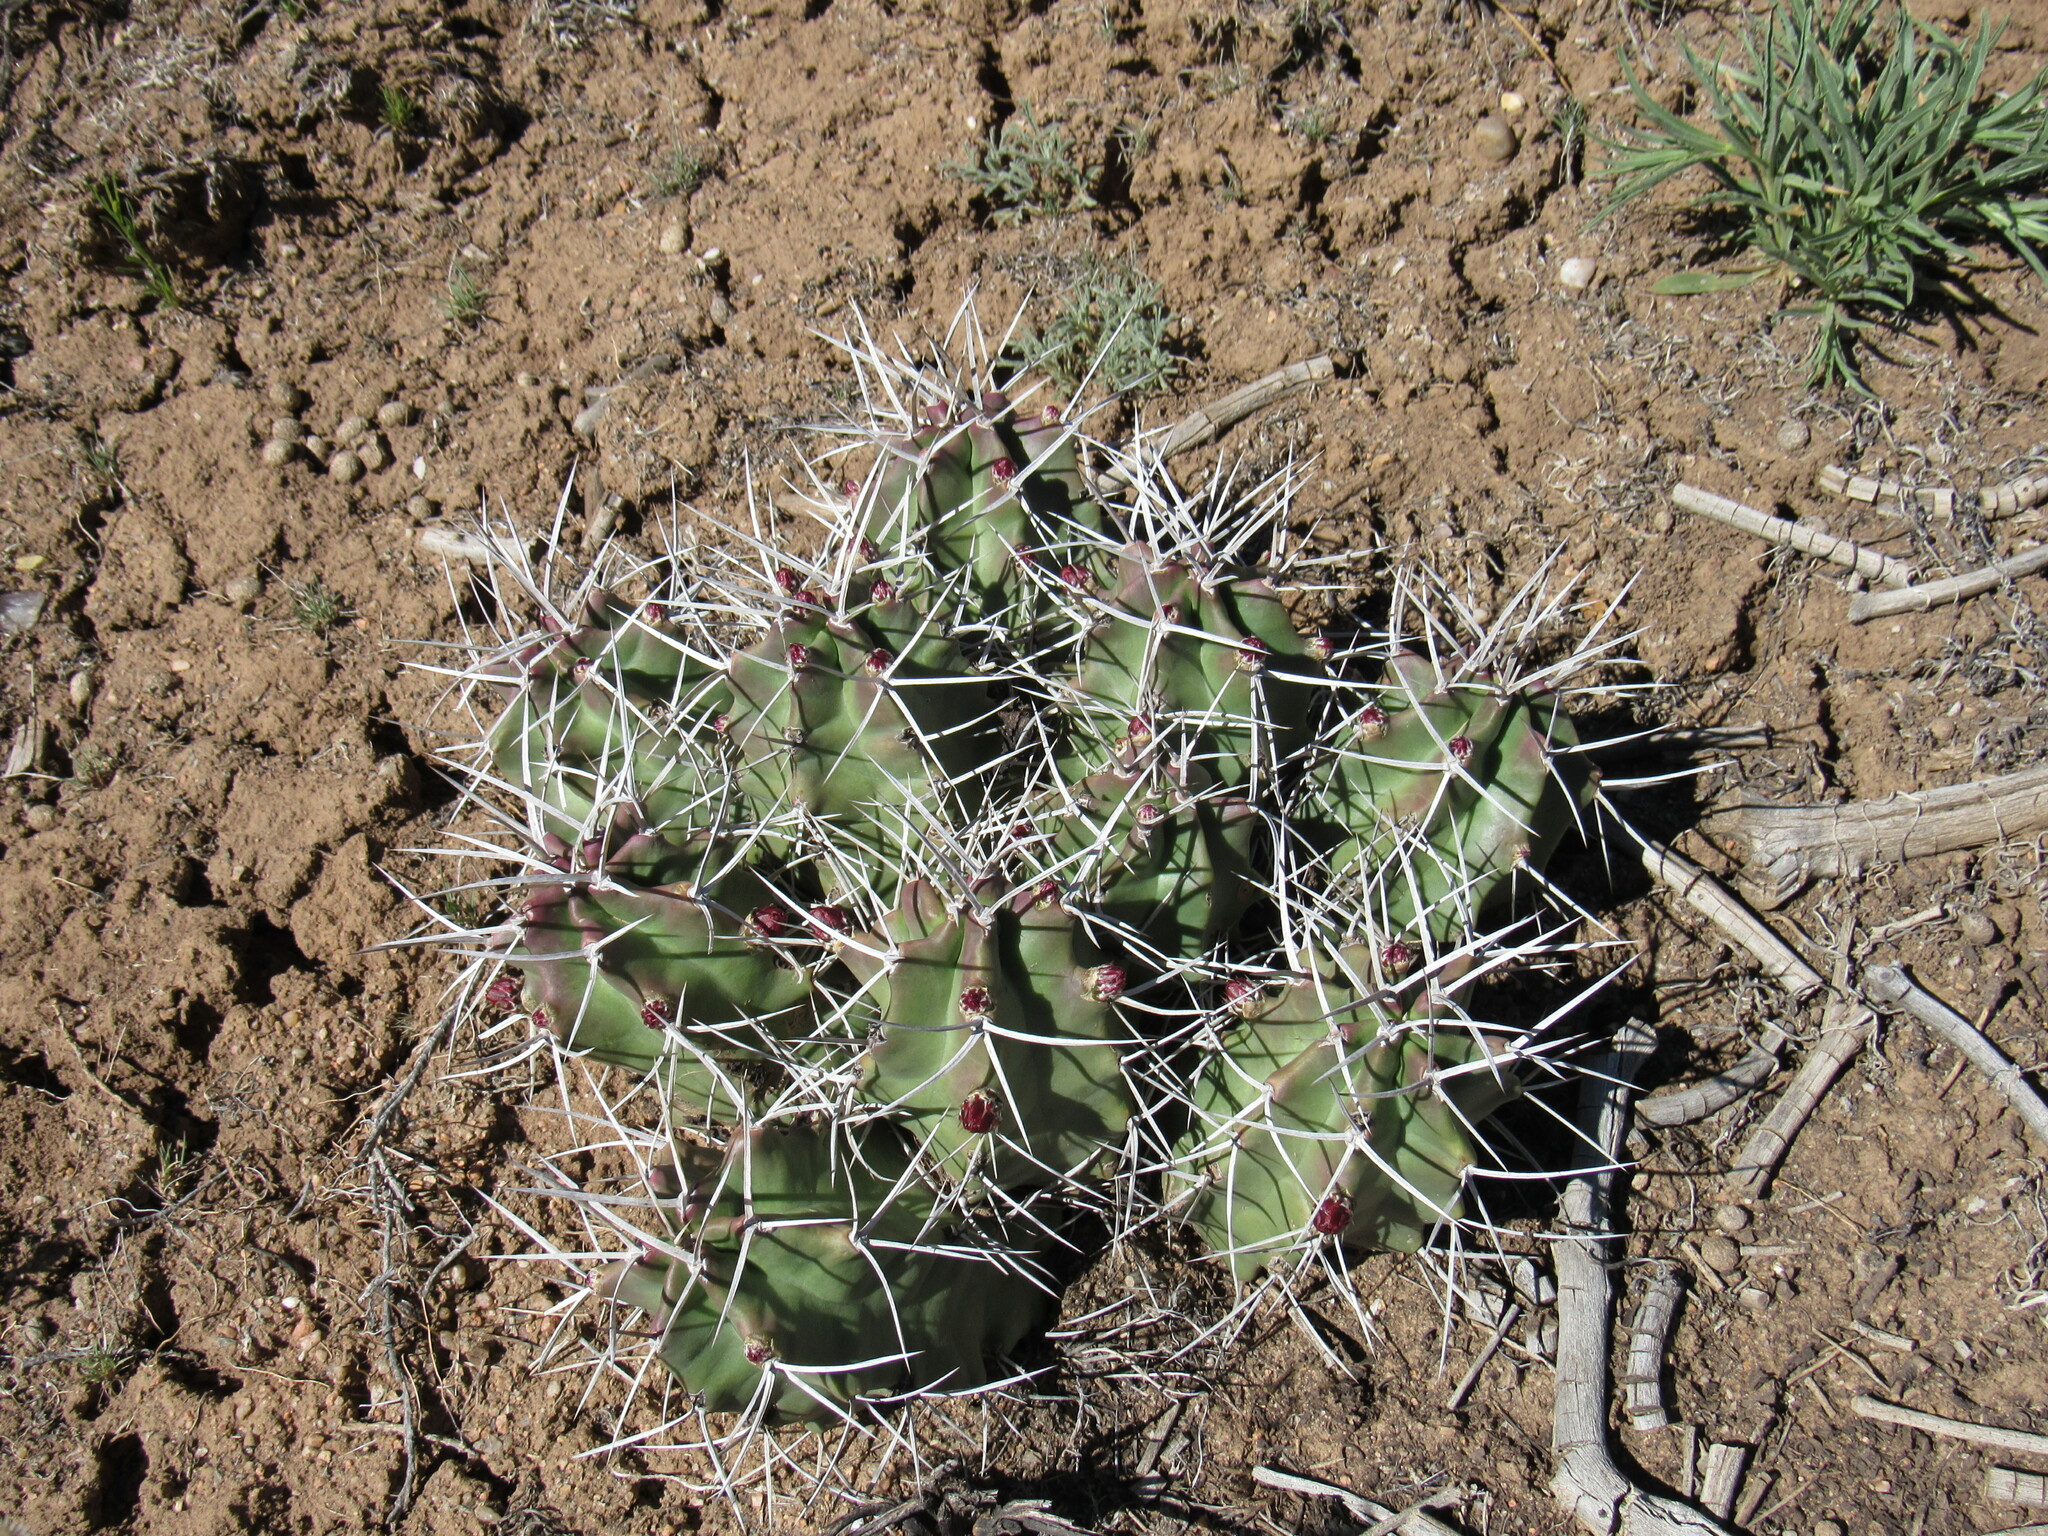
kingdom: Plantae
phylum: Tracheophyta
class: Magnoliopsida
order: Caryophyllales
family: Cactaceae
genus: Echinocereus
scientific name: Echinocereus triglochidiatus
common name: Claretcup hedgehog
